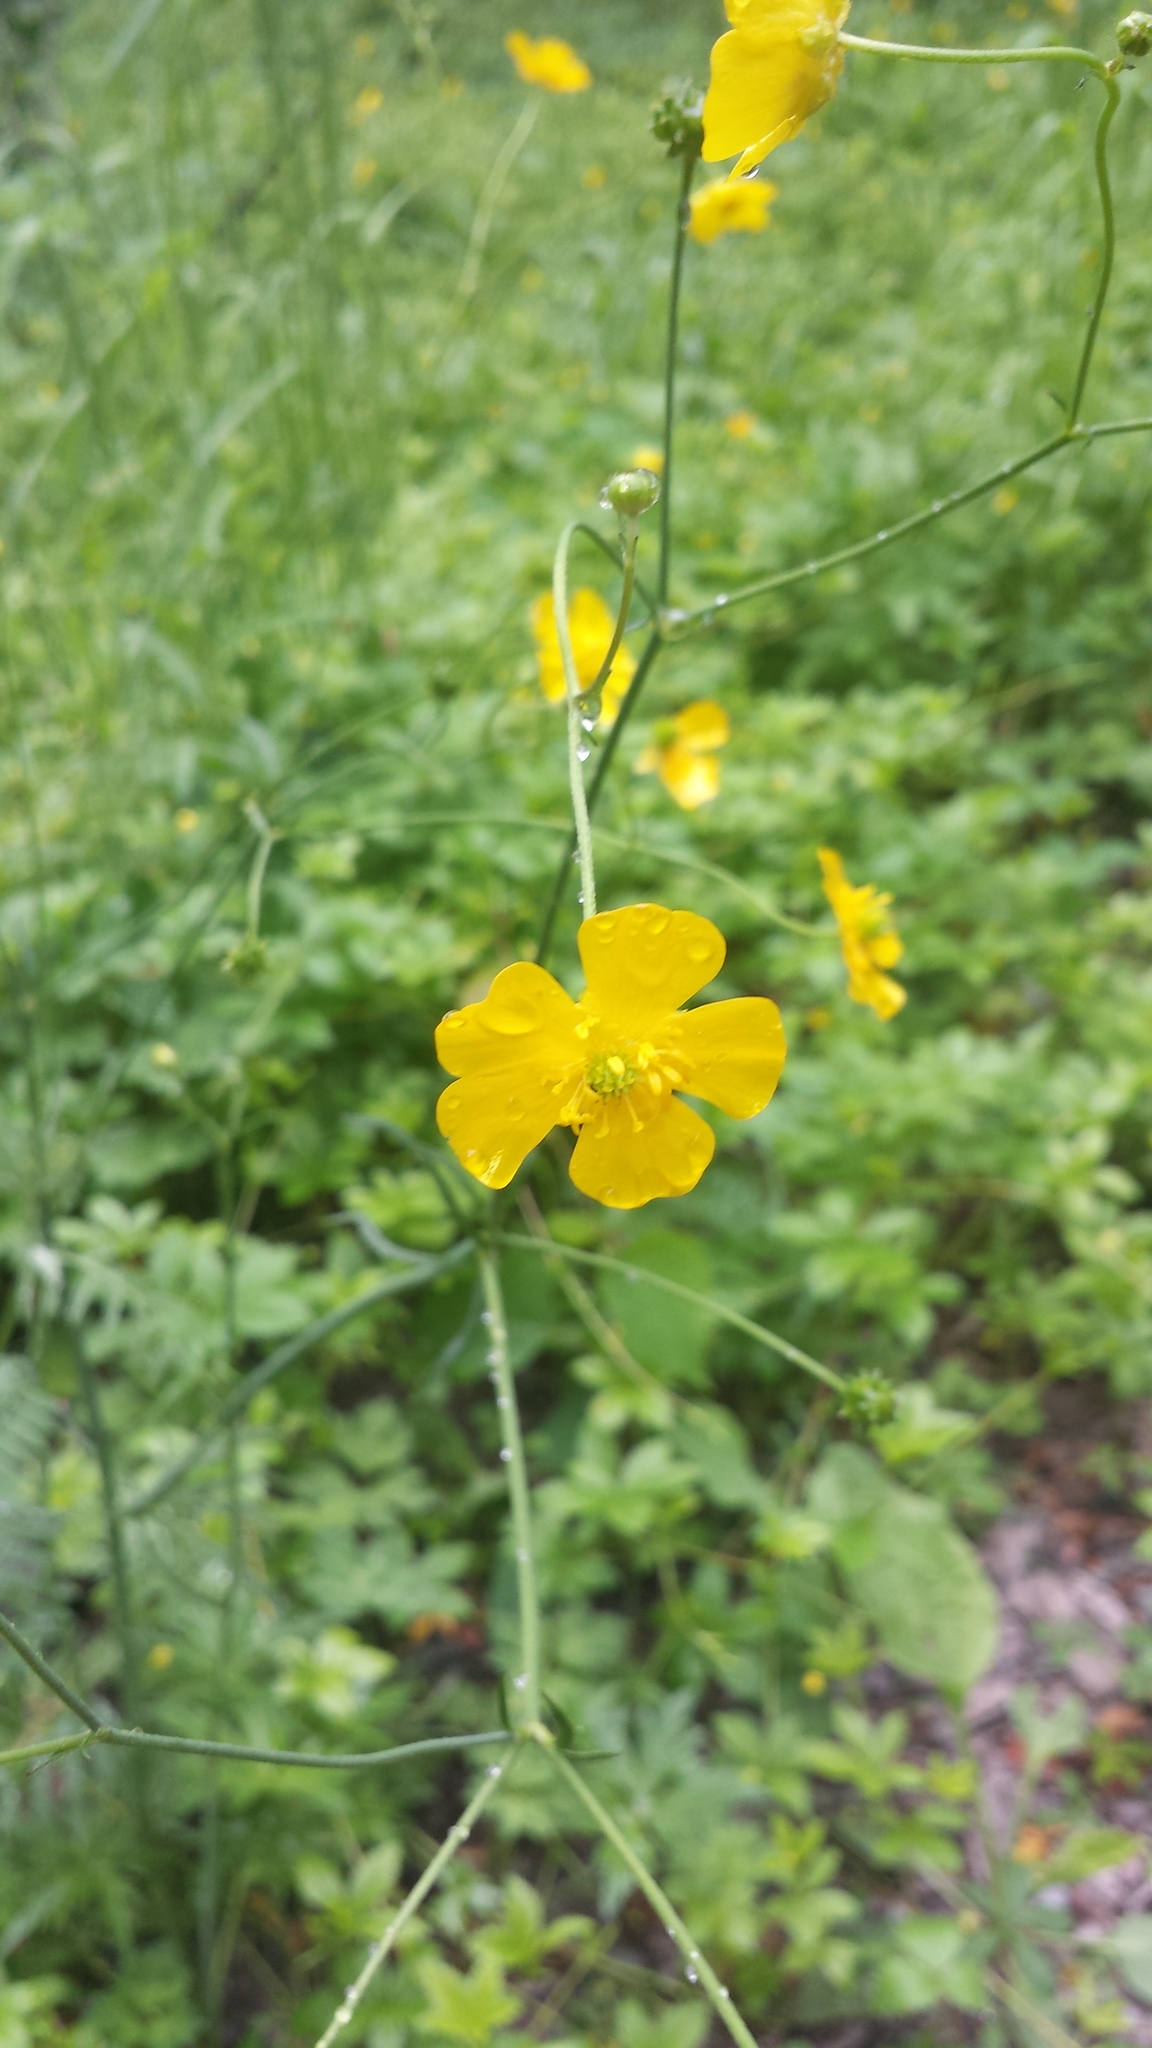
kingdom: Plantae
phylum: Tracheophyta
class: Magnoliopsida
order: Ranunculales
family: Ranunculaceae
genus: Ranunculus
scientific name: Ranunculus acris
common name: Meadow buttercup
